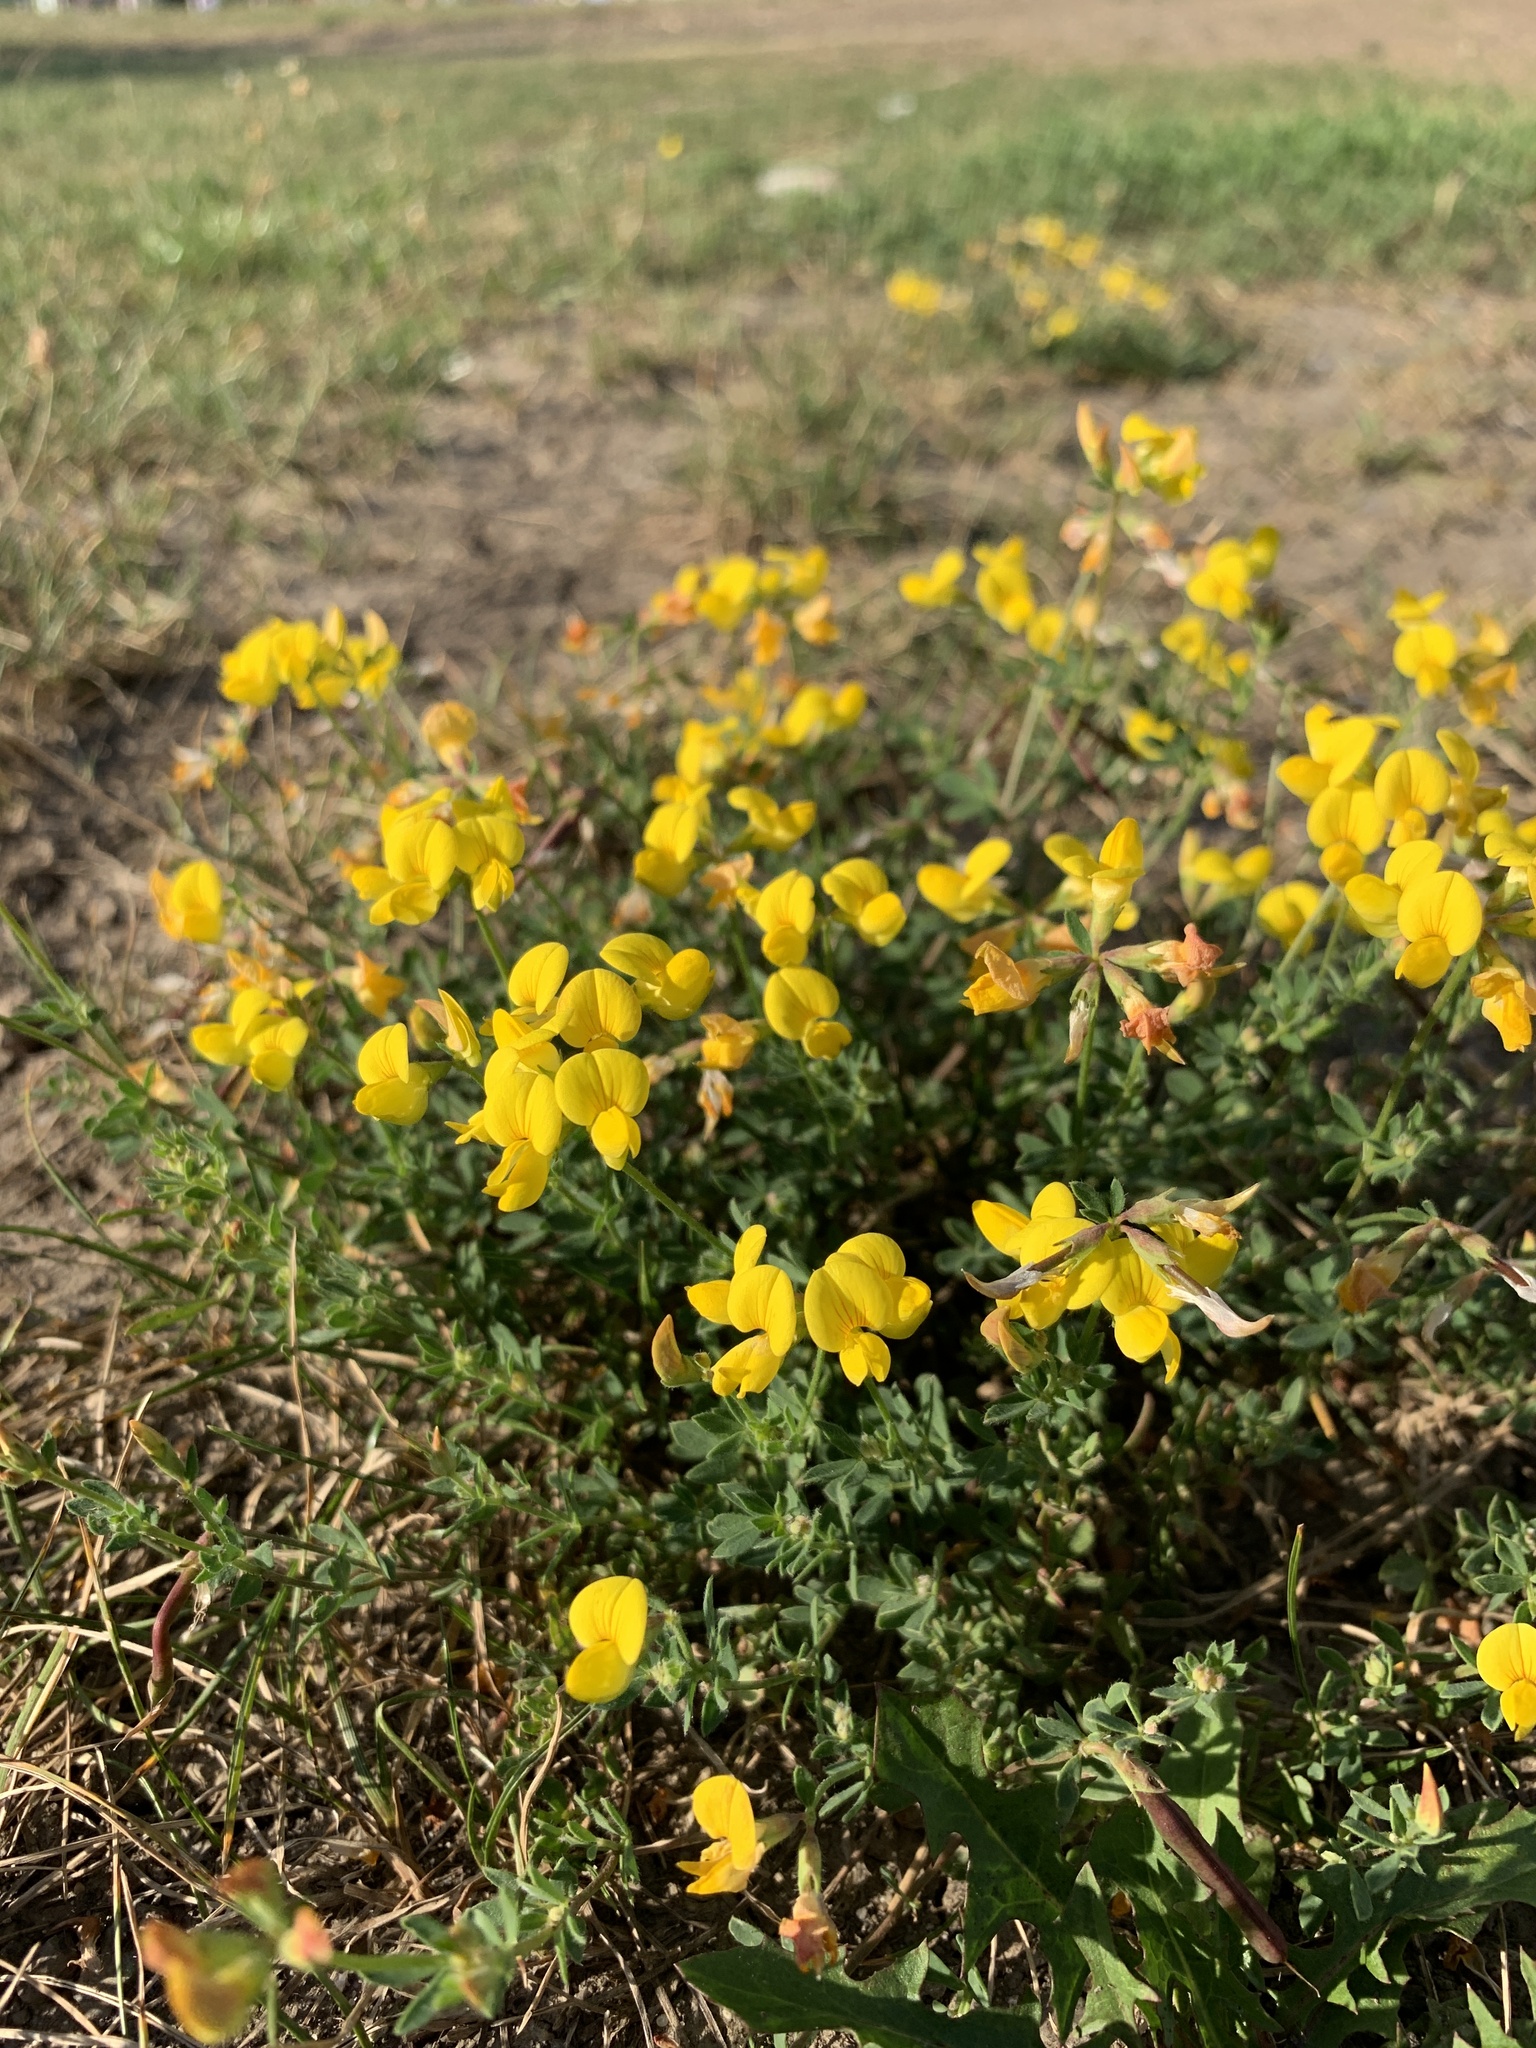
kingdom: Plantae
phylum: Tracheophyta
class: Magnoliopsida
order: Fabales
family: Fabaceae
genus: Lotus
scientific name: Lotus corniculatus
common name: Common bird's-foot-trefoil
